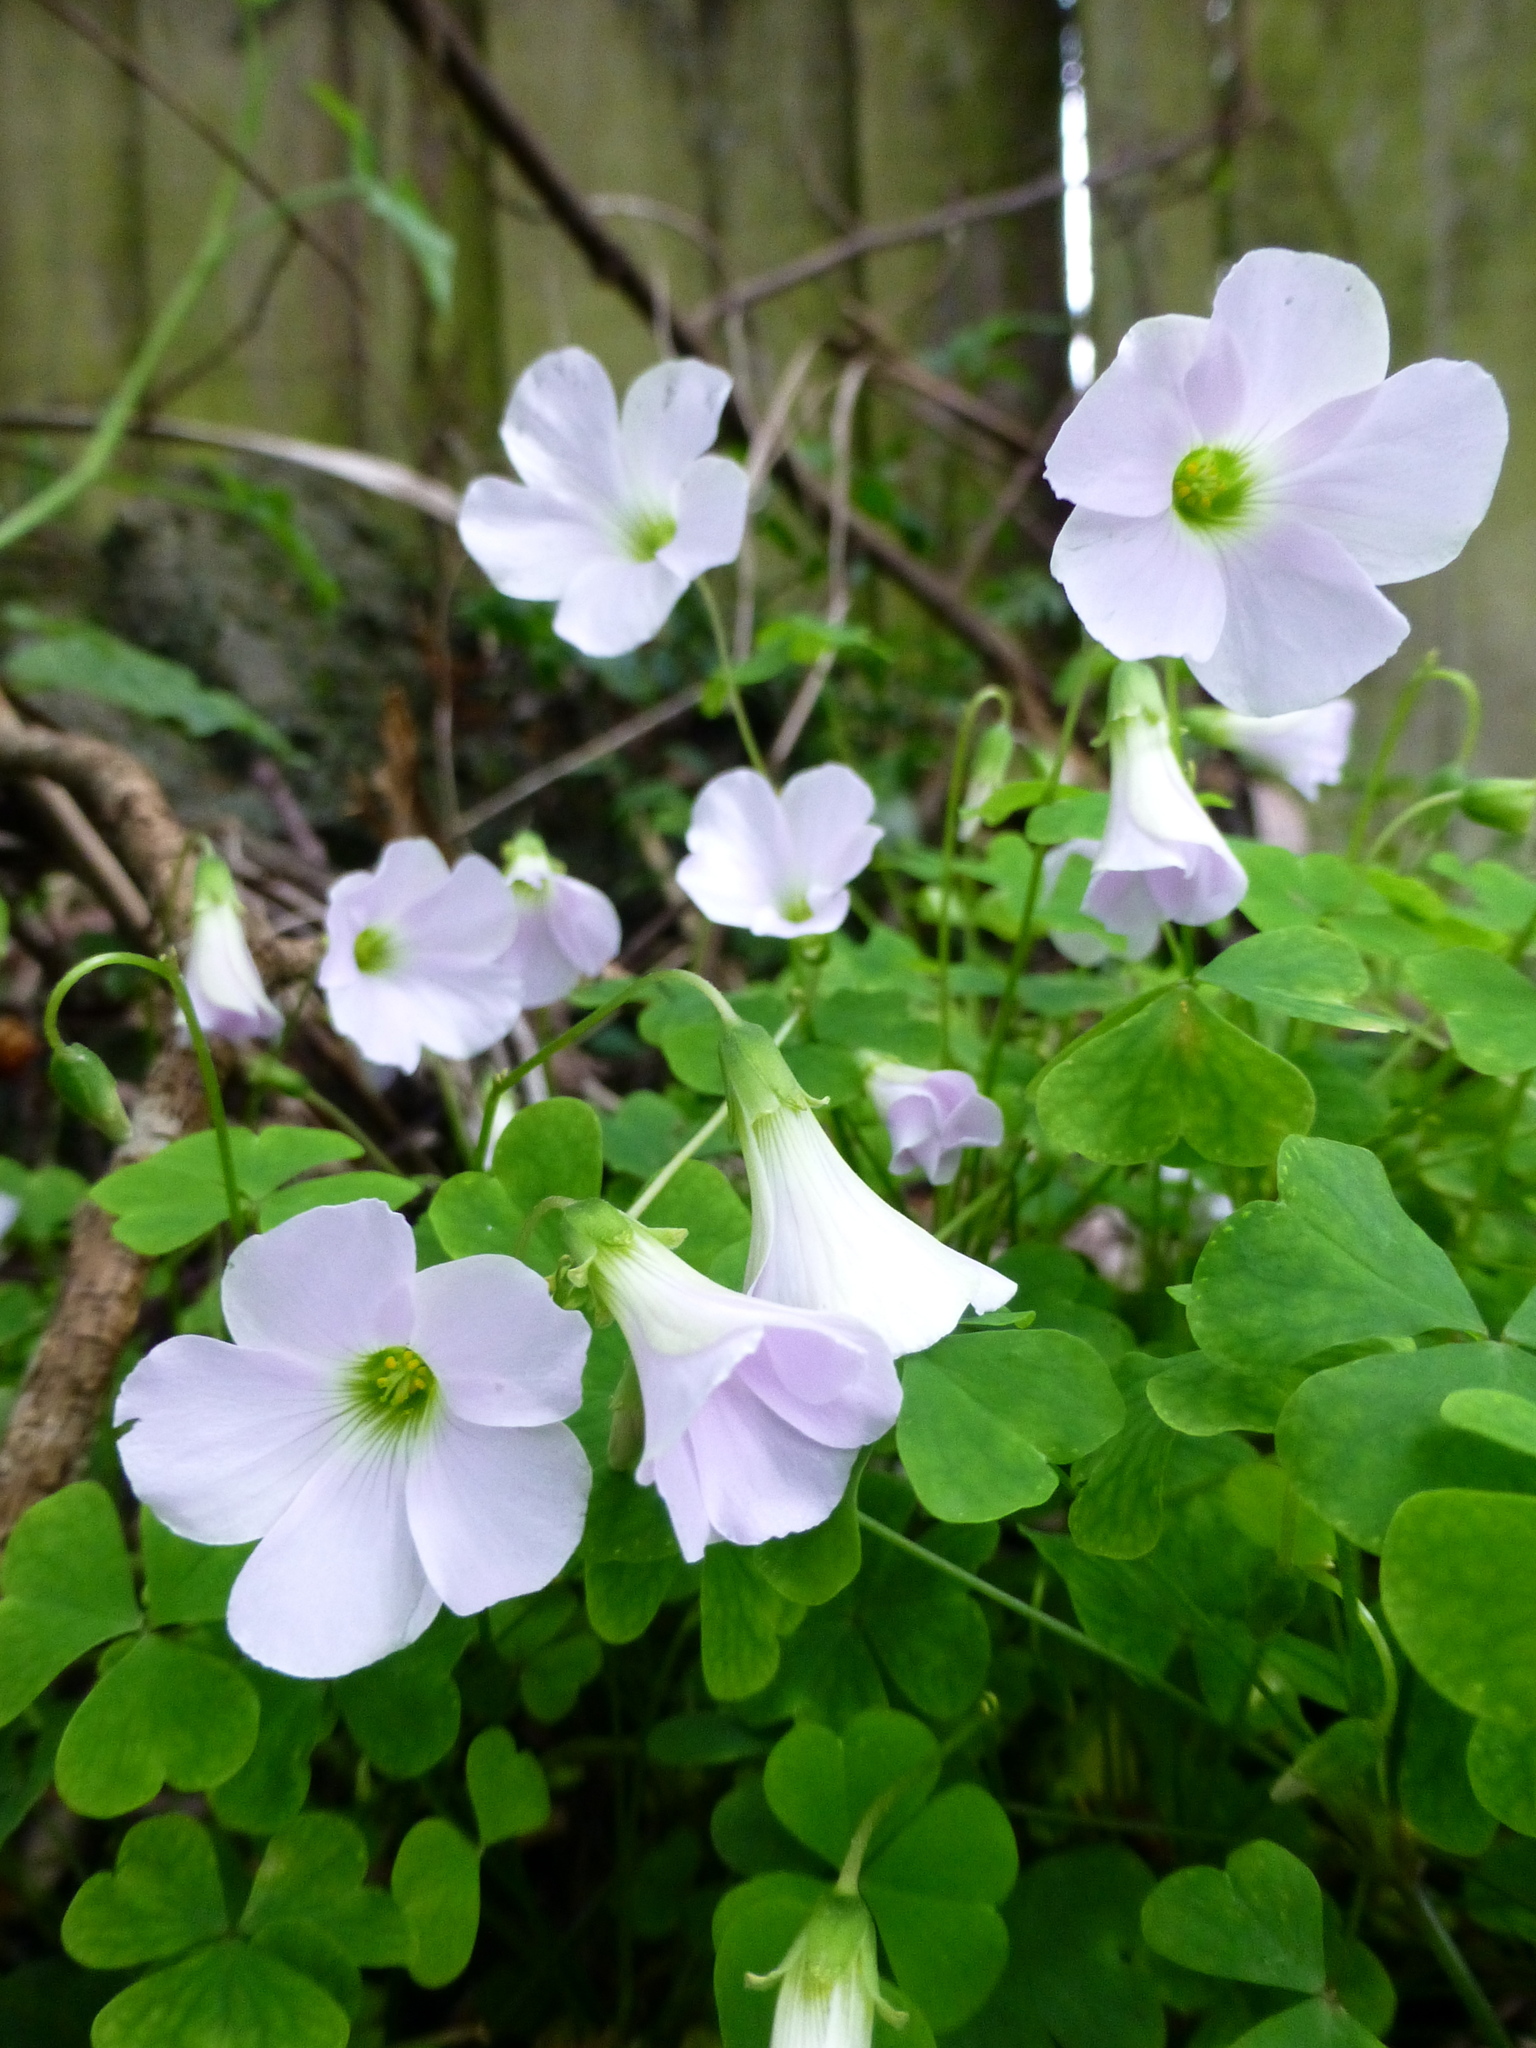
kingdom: Plantae
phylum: Tracheophyta
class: Magnoliopsida
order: Oxalidales
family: Oxalidaceae
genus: Oxalis
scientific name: Oxalis incarnata
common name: Pale pink-sorrel
